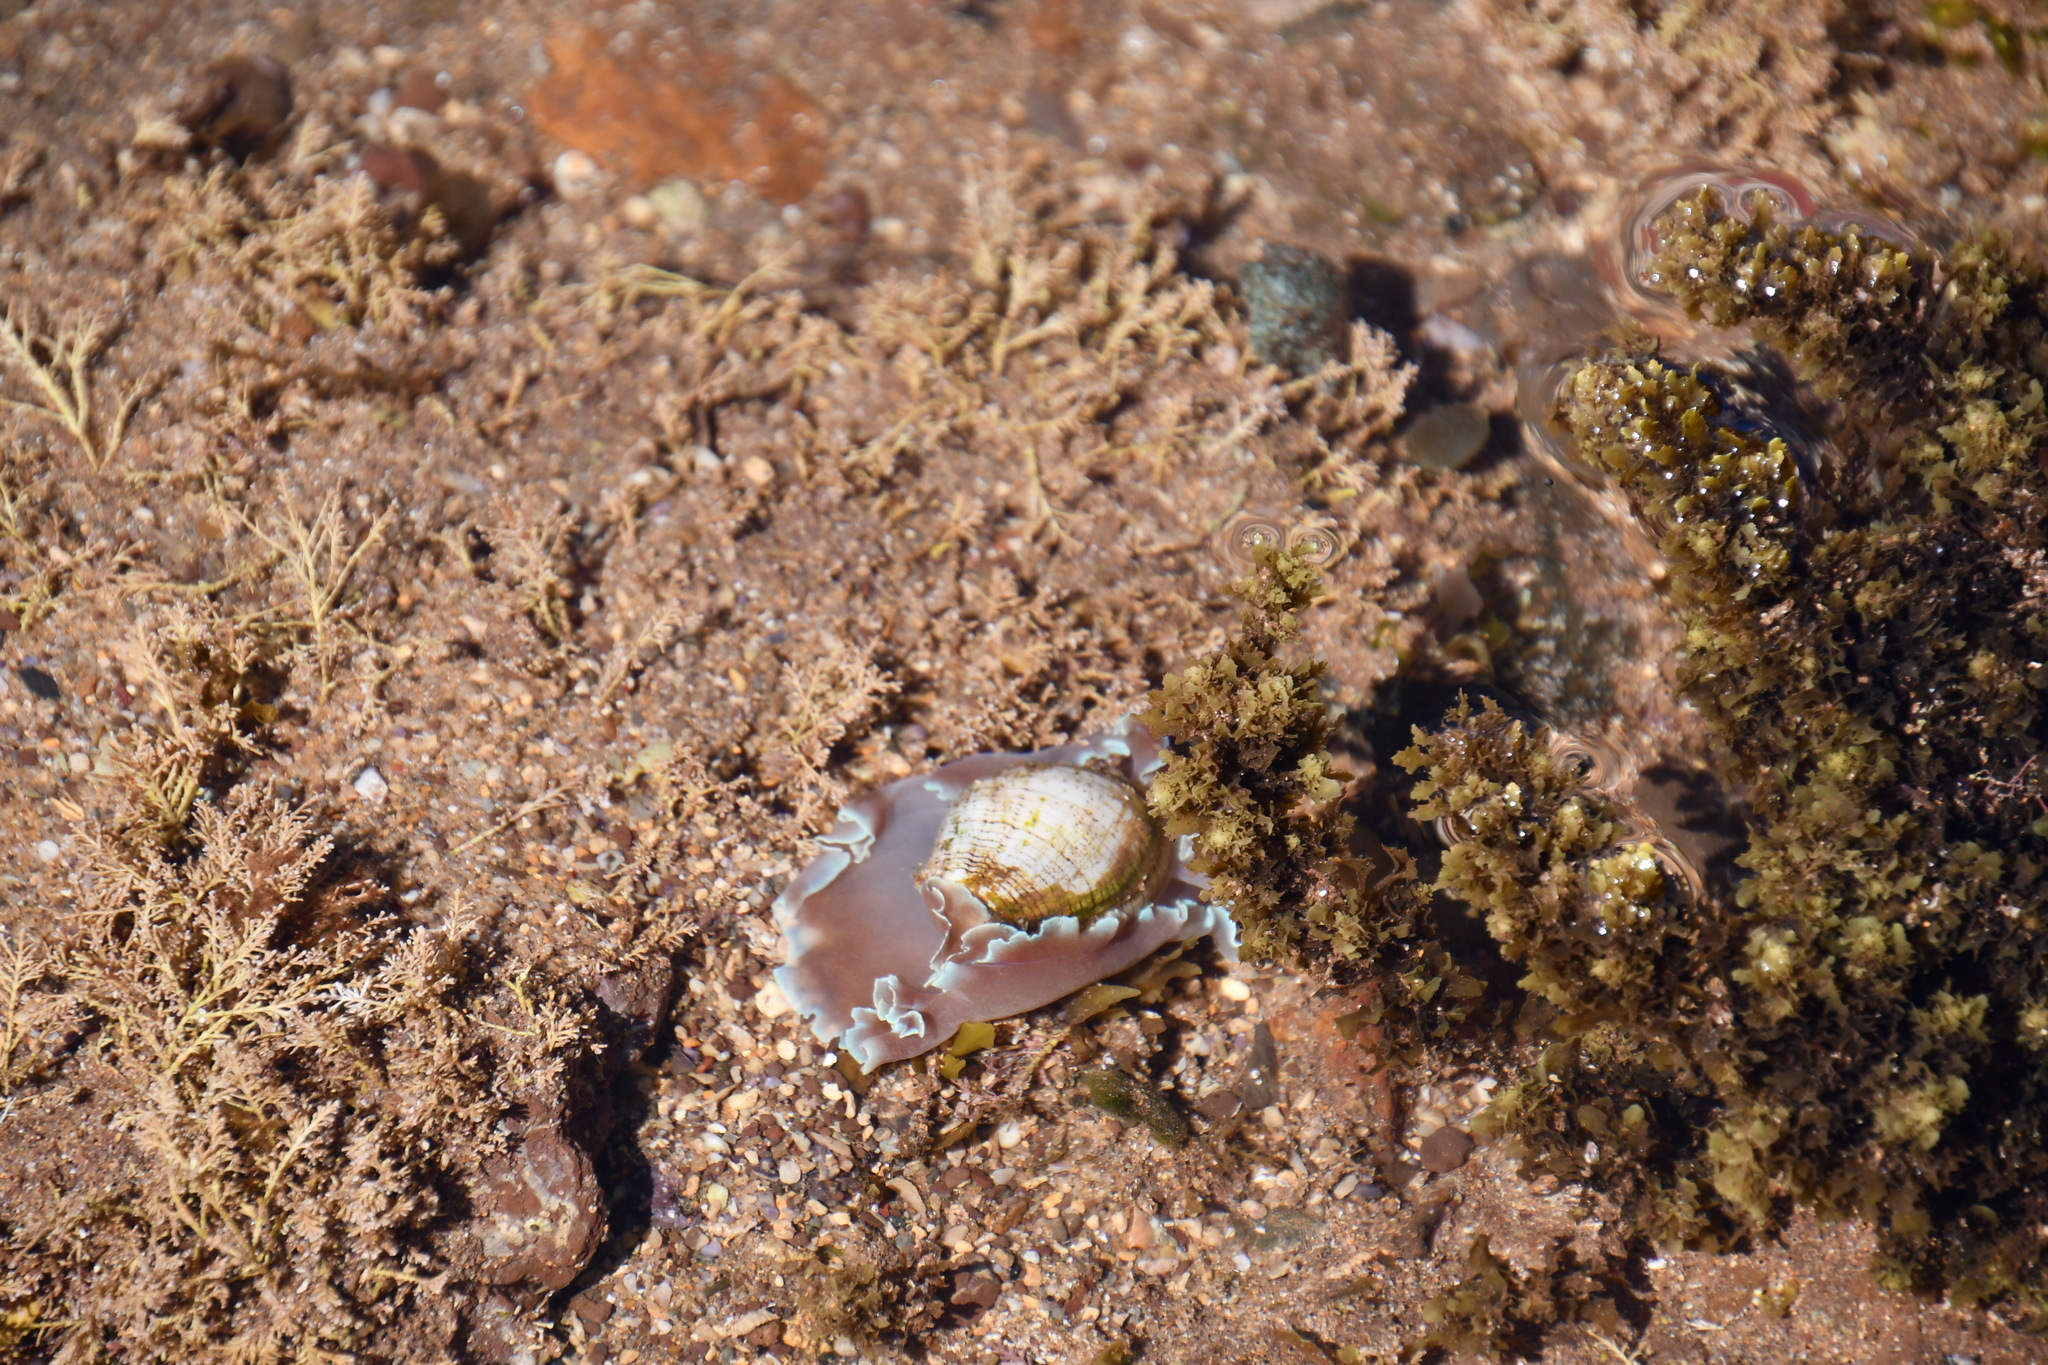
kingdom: Animalia
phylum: Mollusca
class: Gastropoda
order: Cephalaspidea
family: Aplustridae
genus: Hydatina
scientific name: Hydatina physis
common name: Brown-line paperbubble
